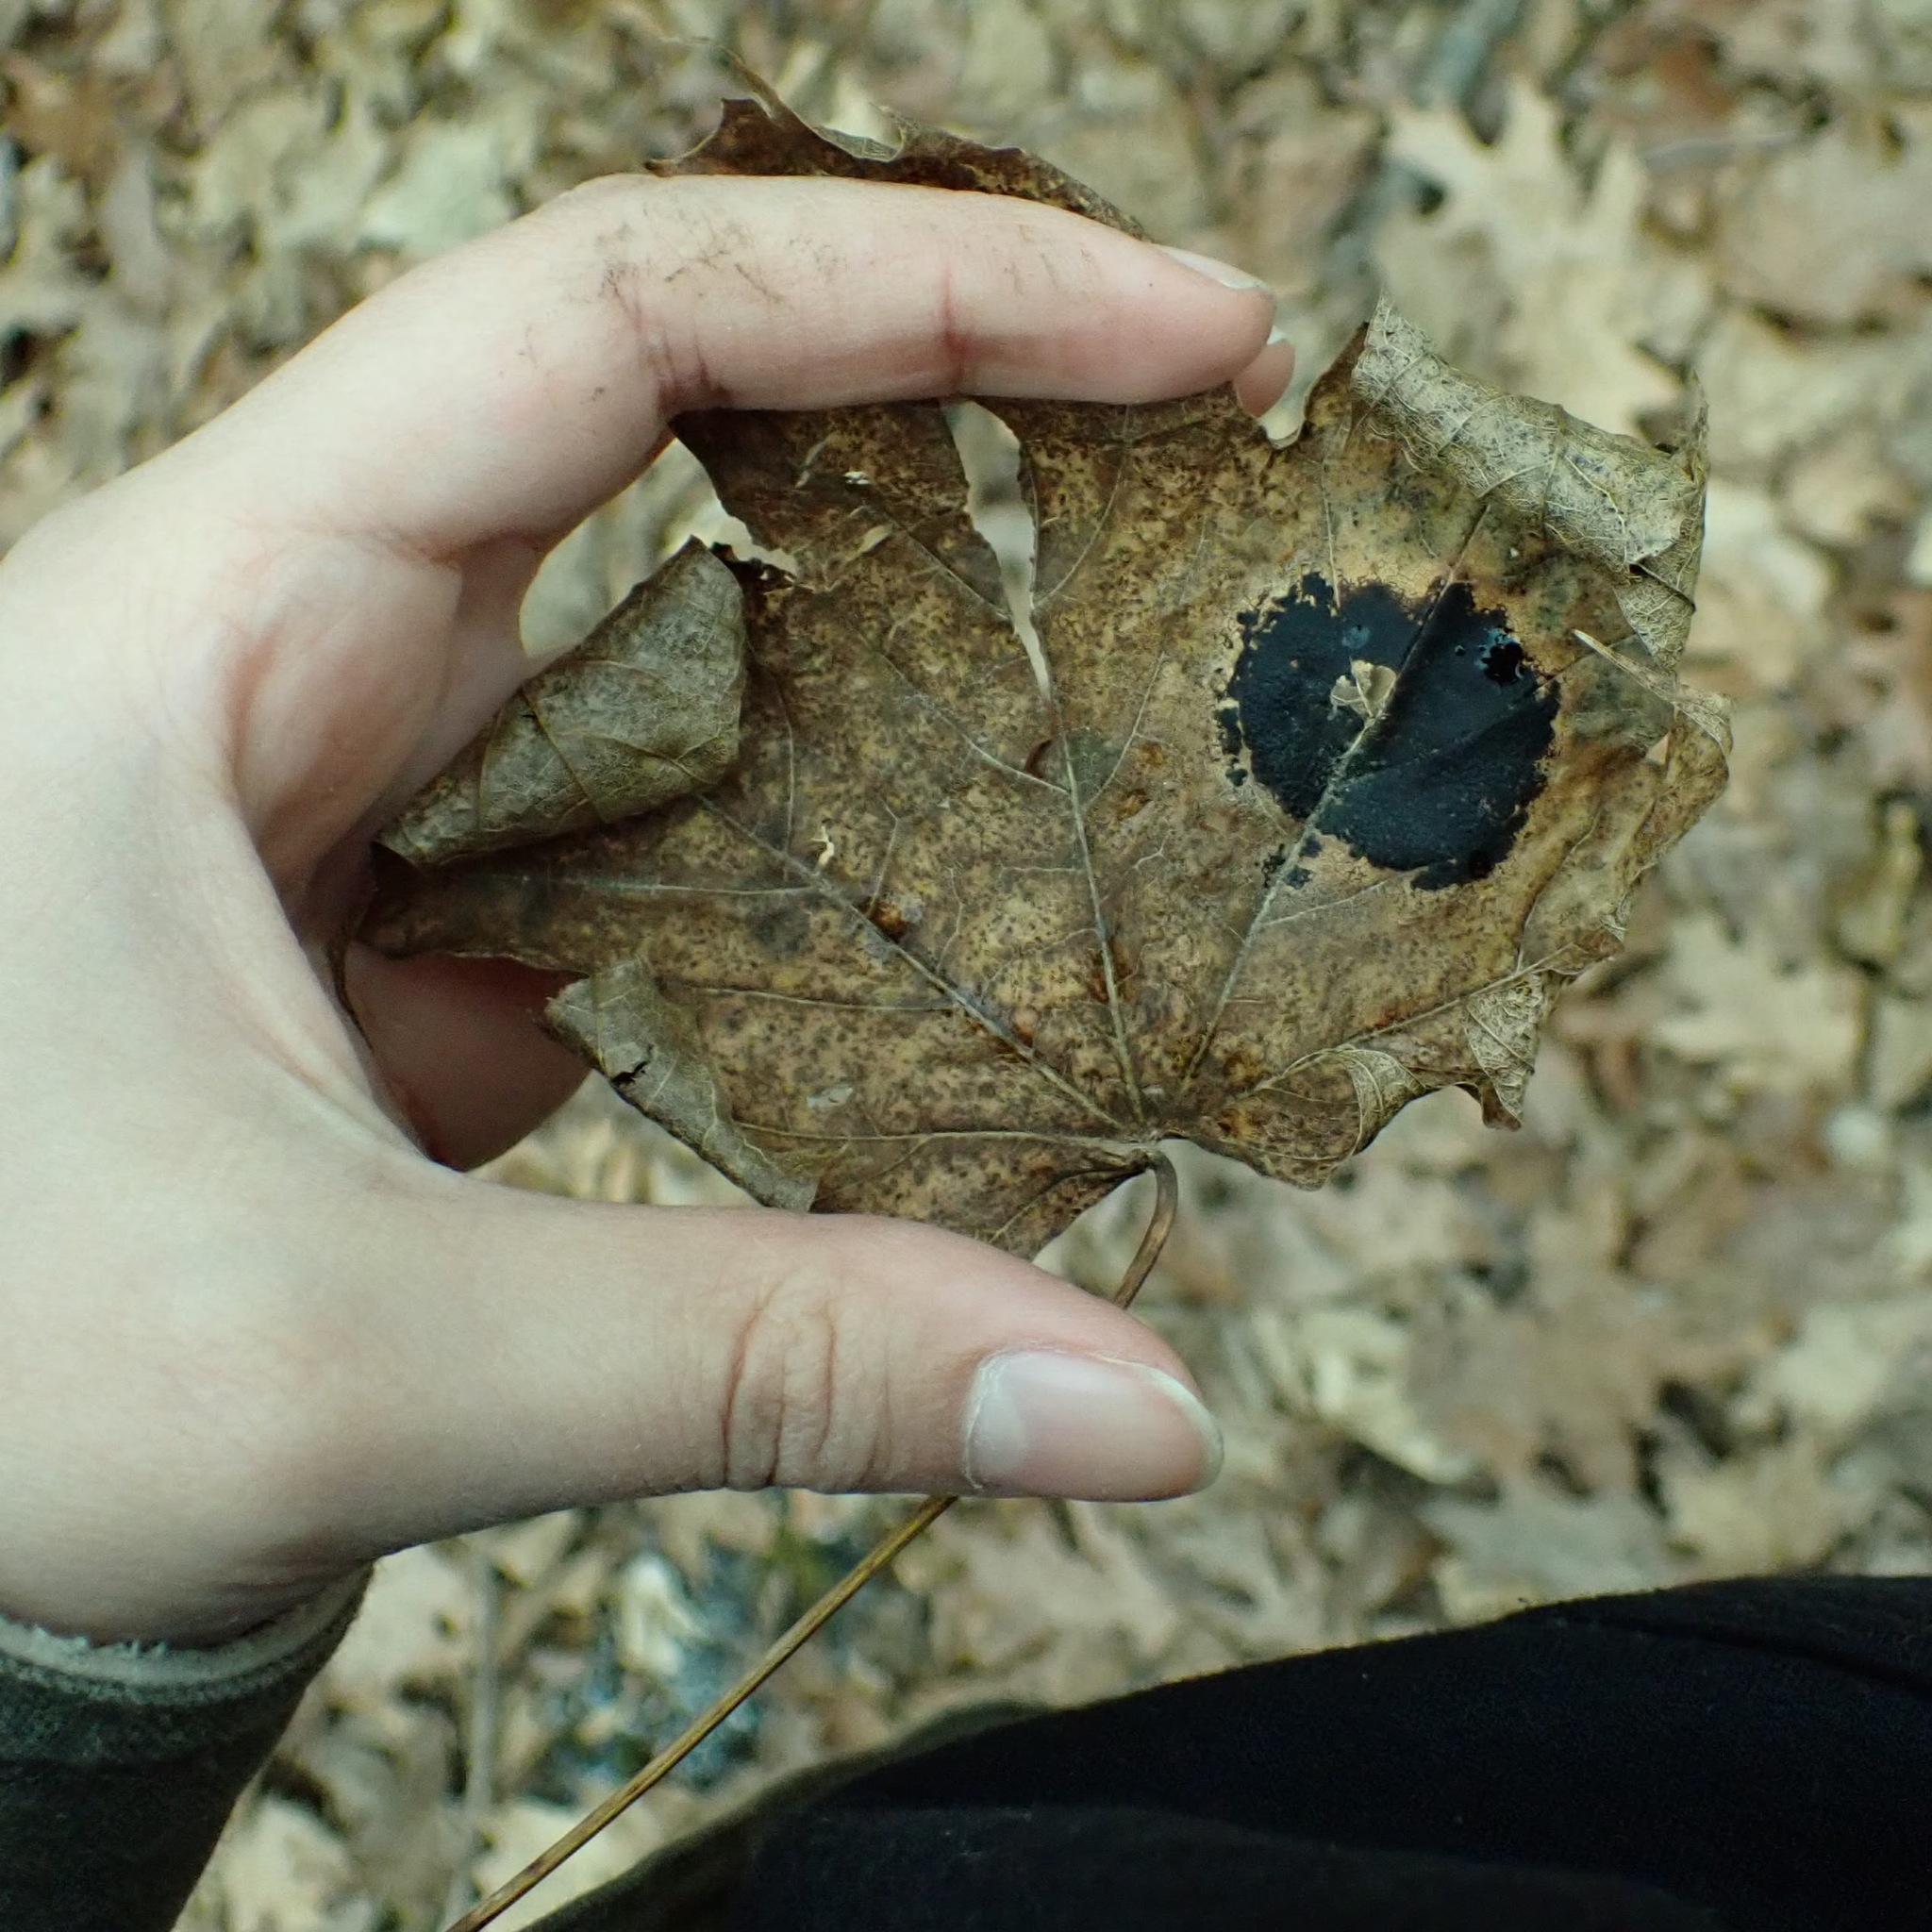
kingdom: Fungi
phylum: Ascomycota
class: Leotiomycetes
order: Rhytismatales
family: Rhytismataceae
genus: Rhytisma
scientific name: Rhytisma acerinum
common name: European tar spot
